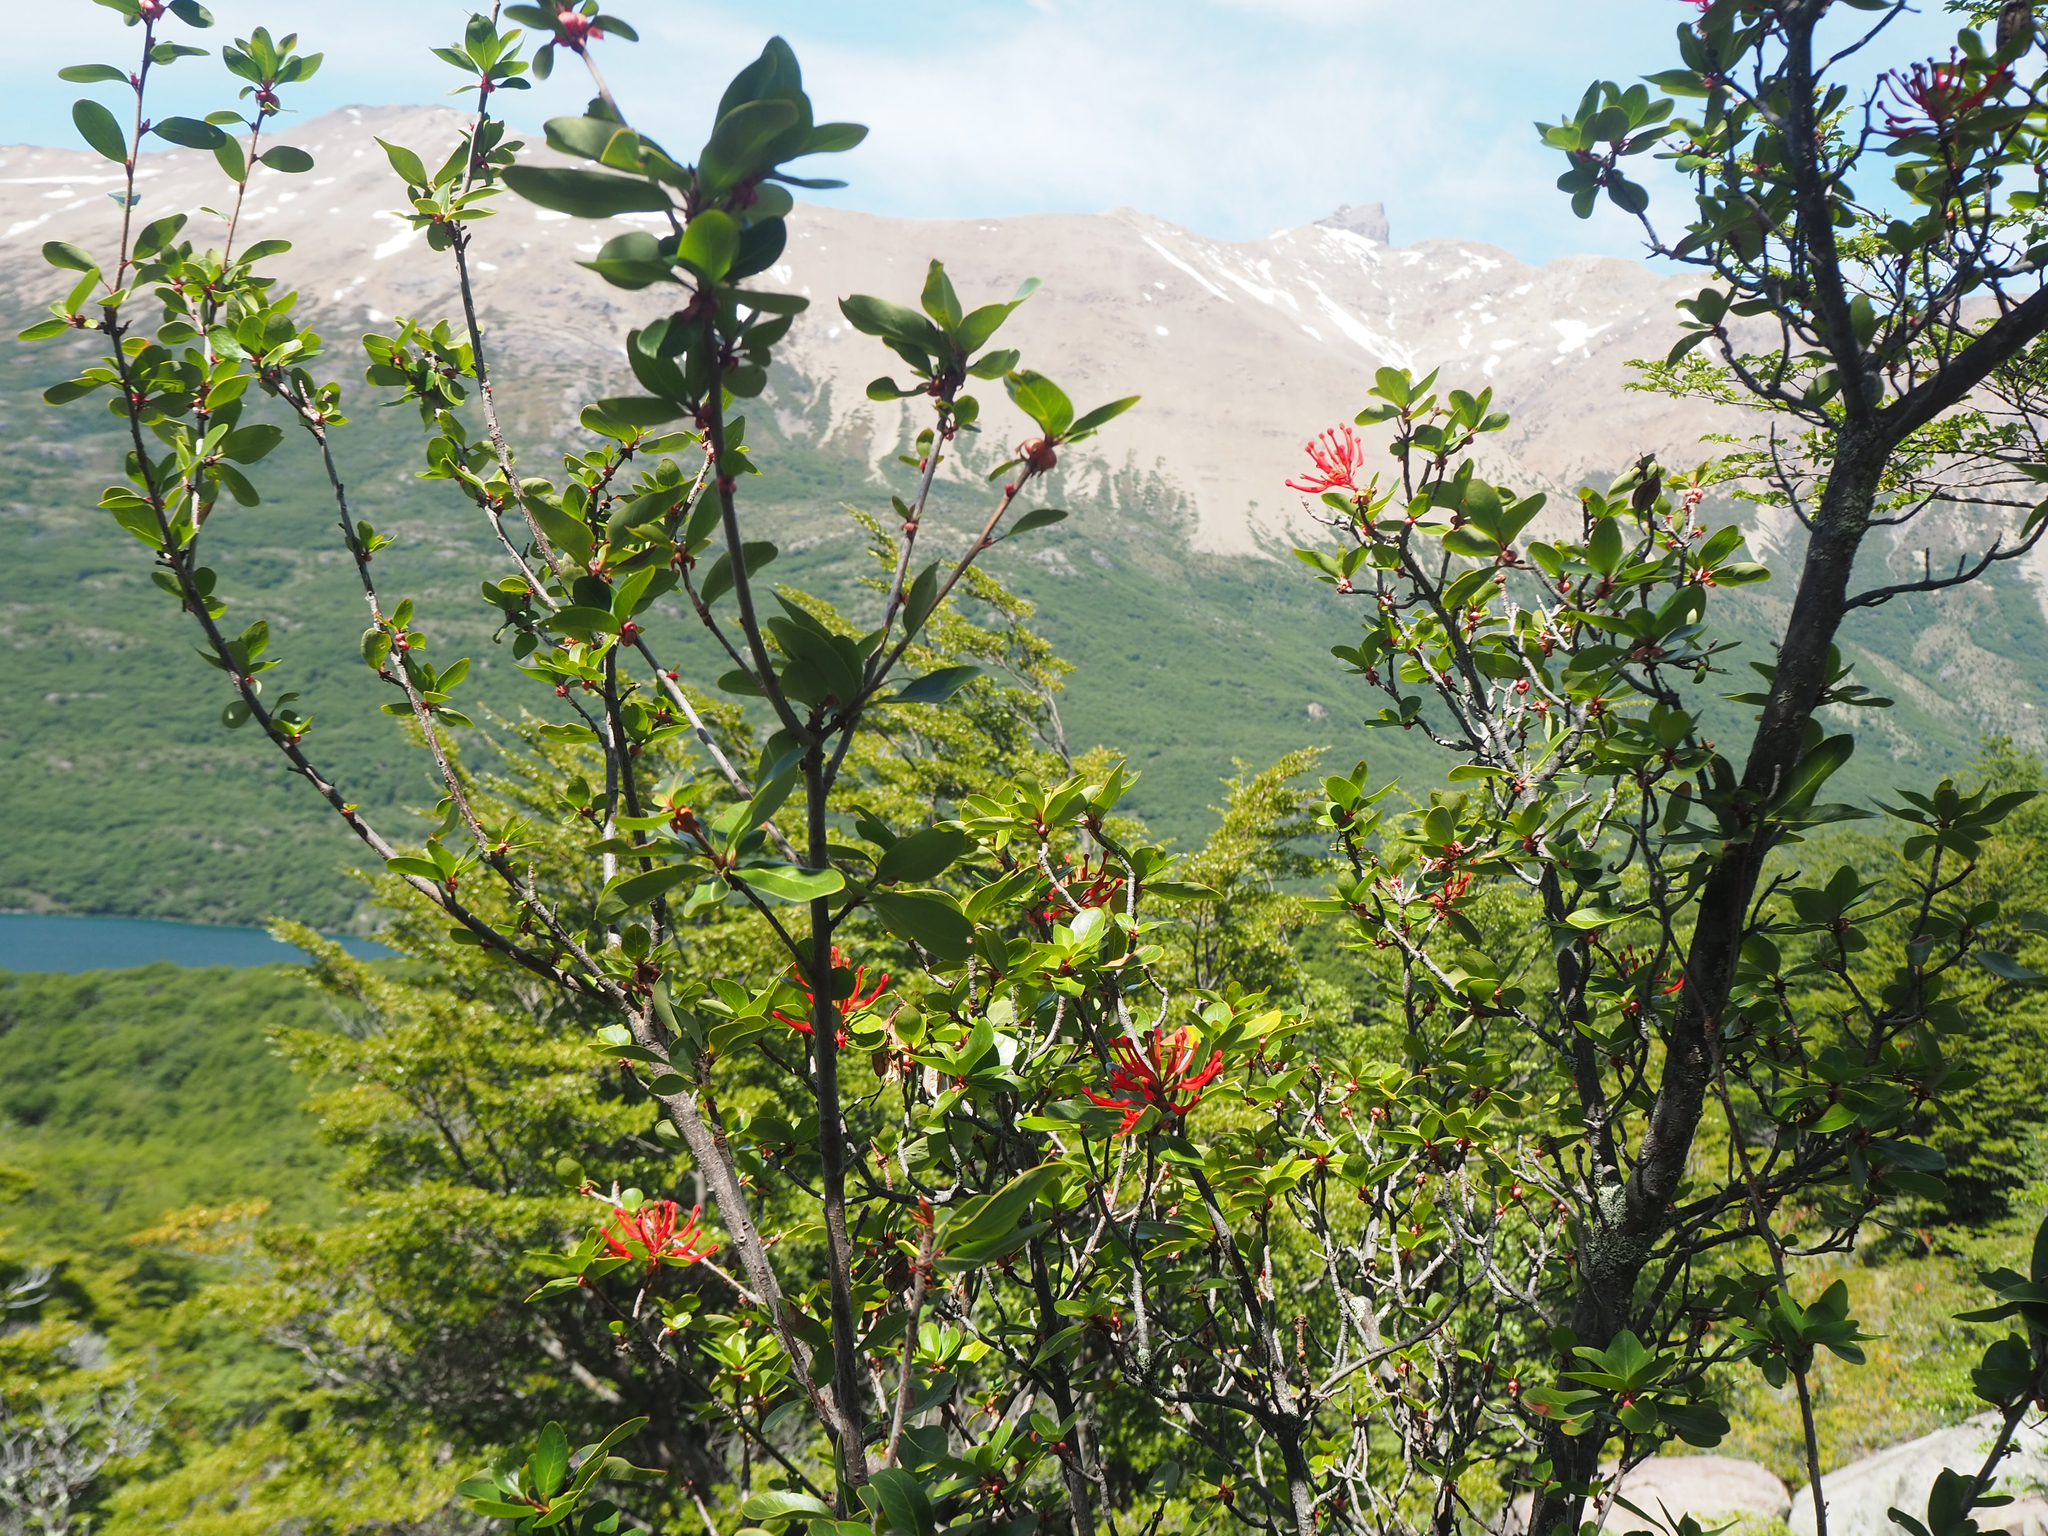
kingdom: Plantae
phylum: Tracheophyta
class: Magnoliopsida
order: Proteales
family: Proteaceae
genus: Embothrium
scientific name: Embothrium coccineum
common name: Chilean firebush
